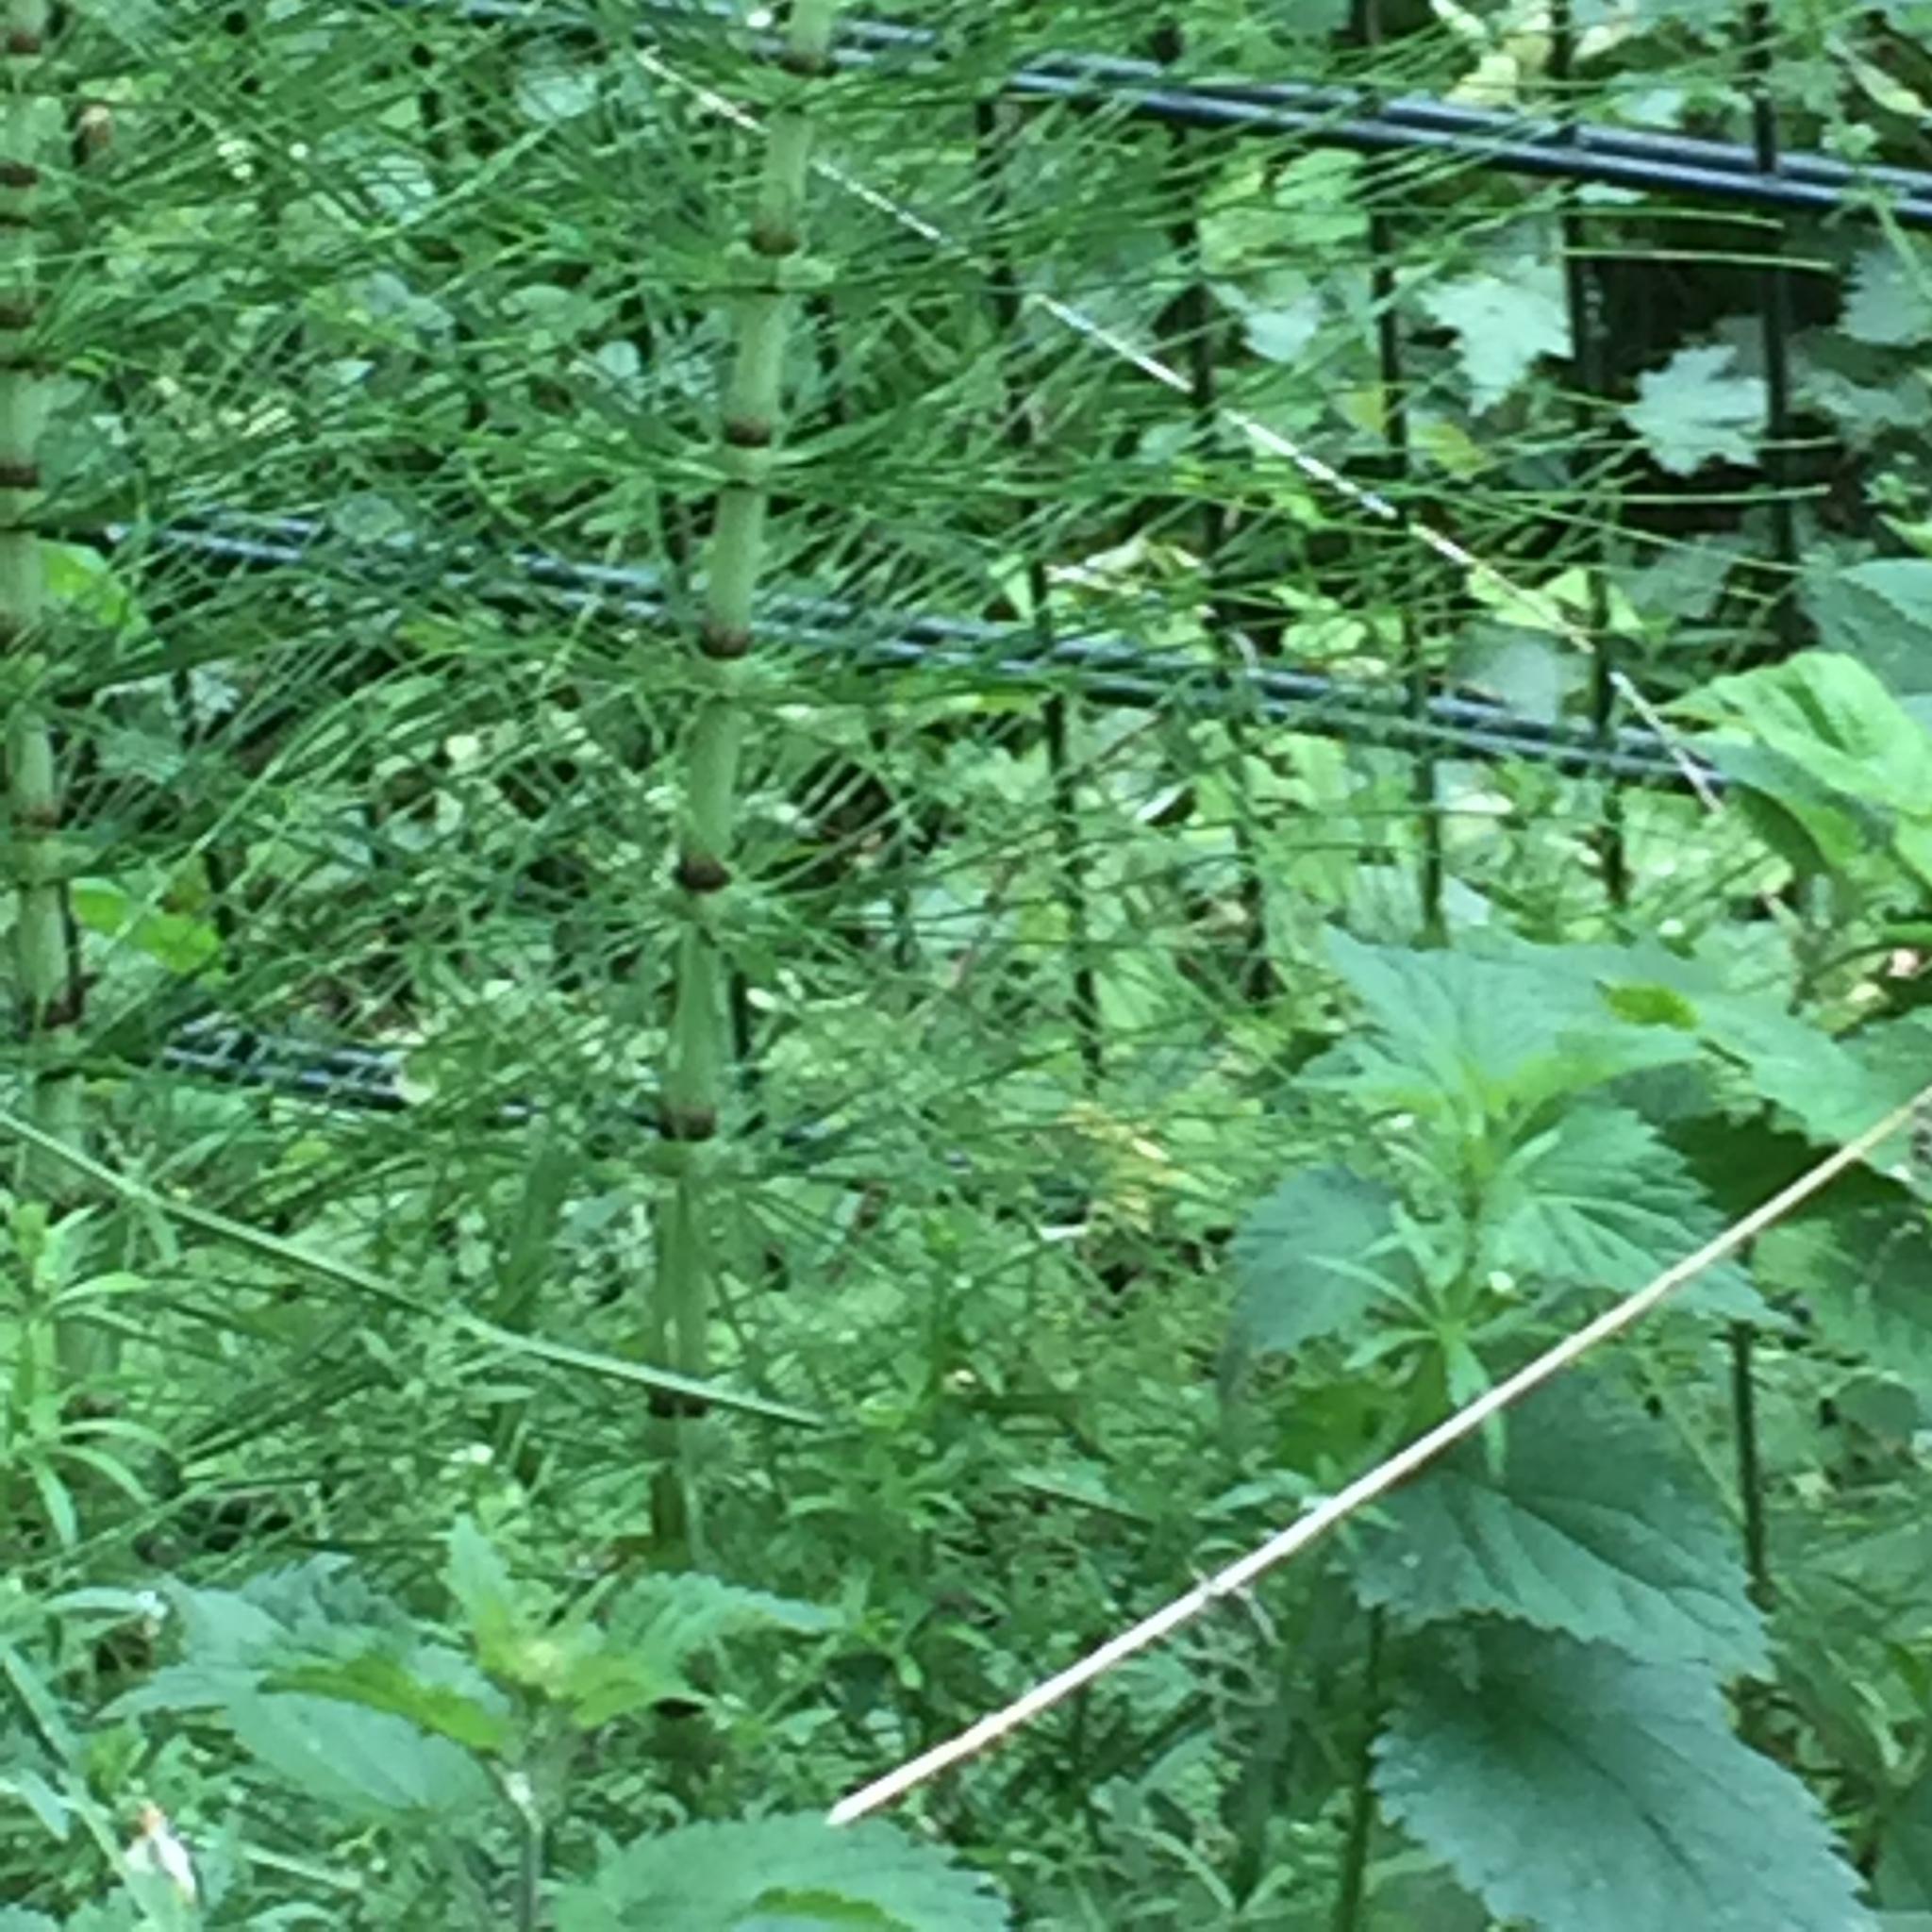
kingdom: Plantae
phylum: Tracheophyta
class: Polypodiopsida
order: Equisetales
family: Equisetaceae
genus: Equisetum
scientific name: Equisetum telmateia
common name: Great horsetail
